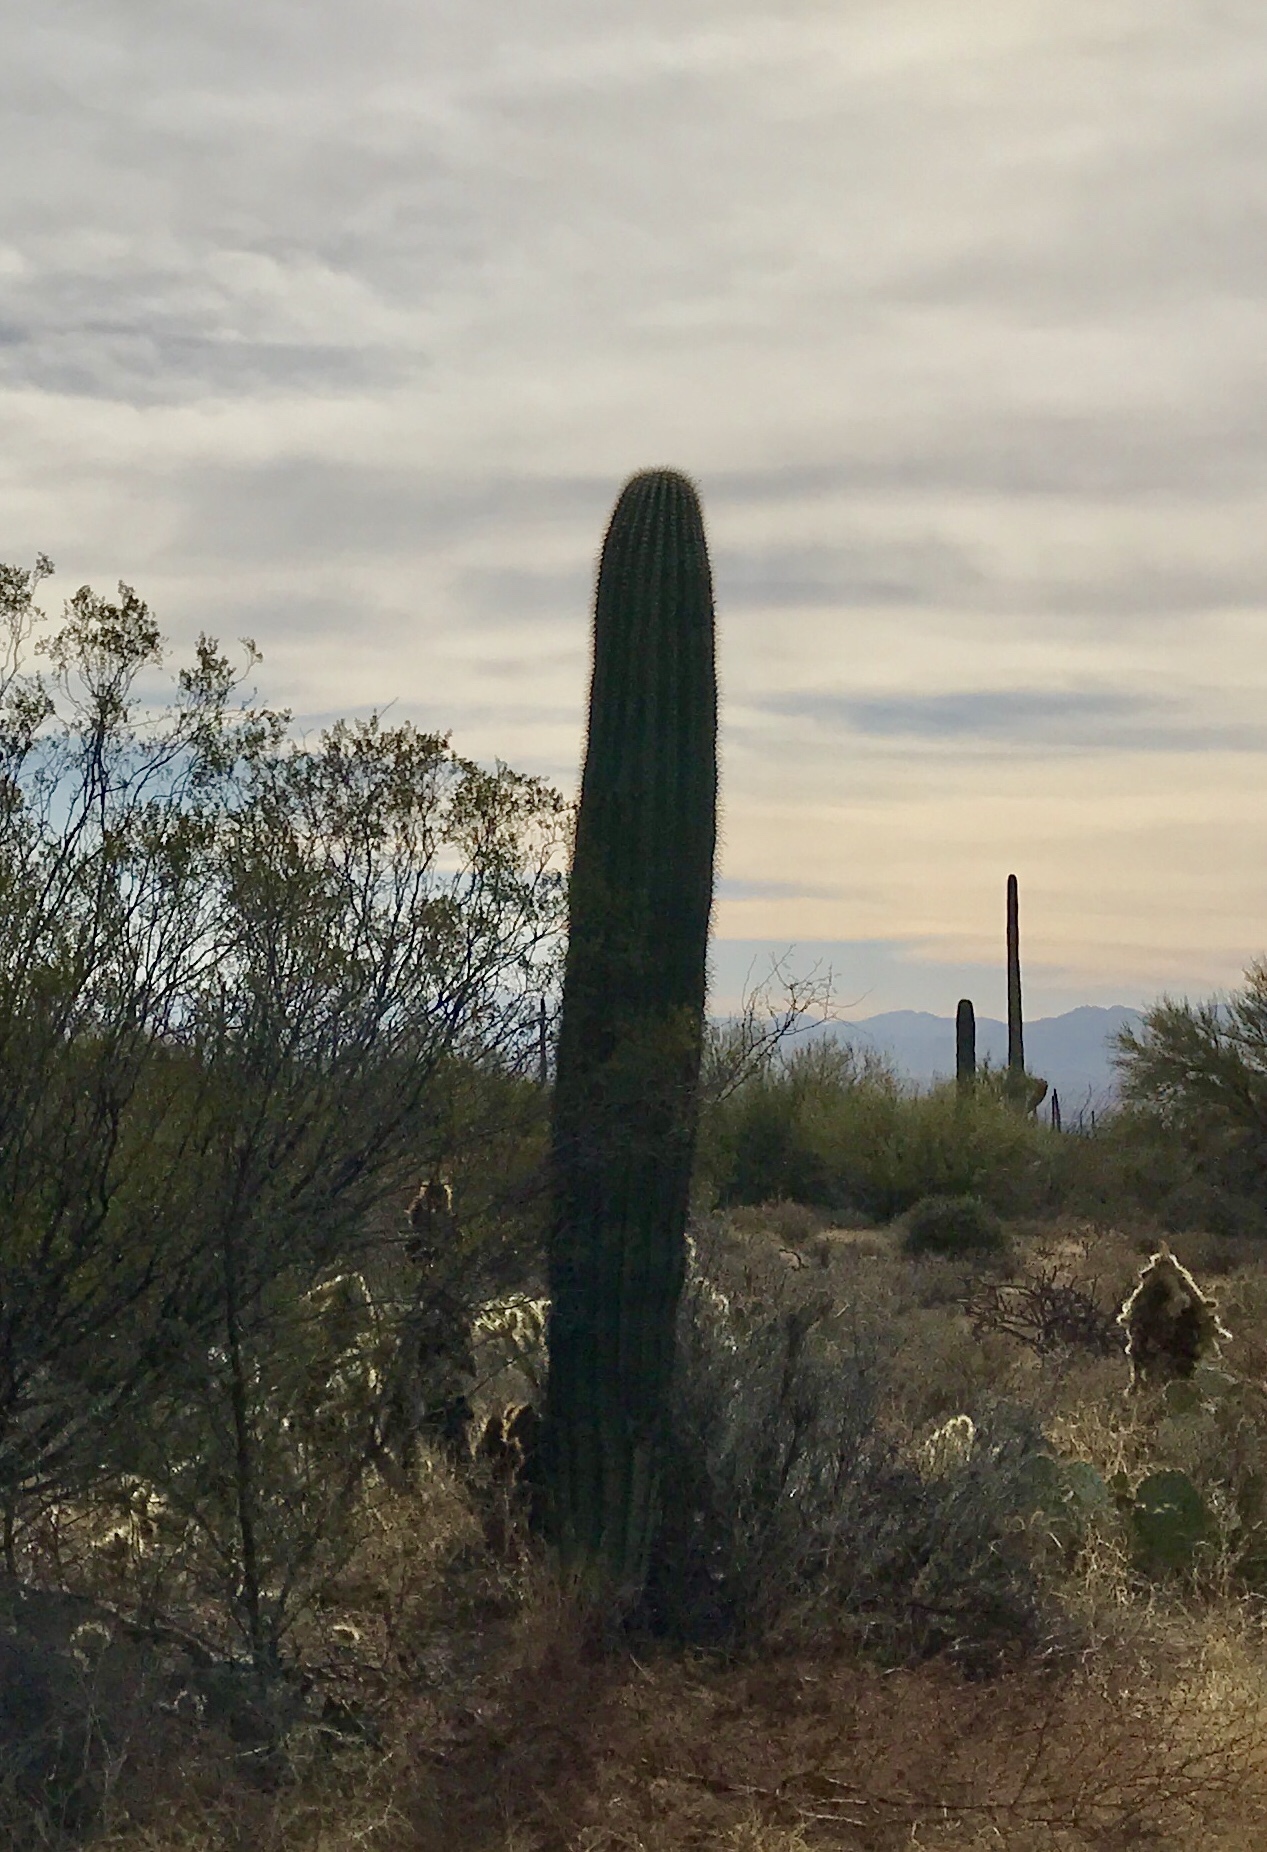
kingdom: Plantae
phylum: Tracheophyta
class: Magnoliopsida
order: Caryophyllales
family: Cactaceae
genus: Carnegiea
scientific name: Carnegiea gigantea
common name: Saguaro
